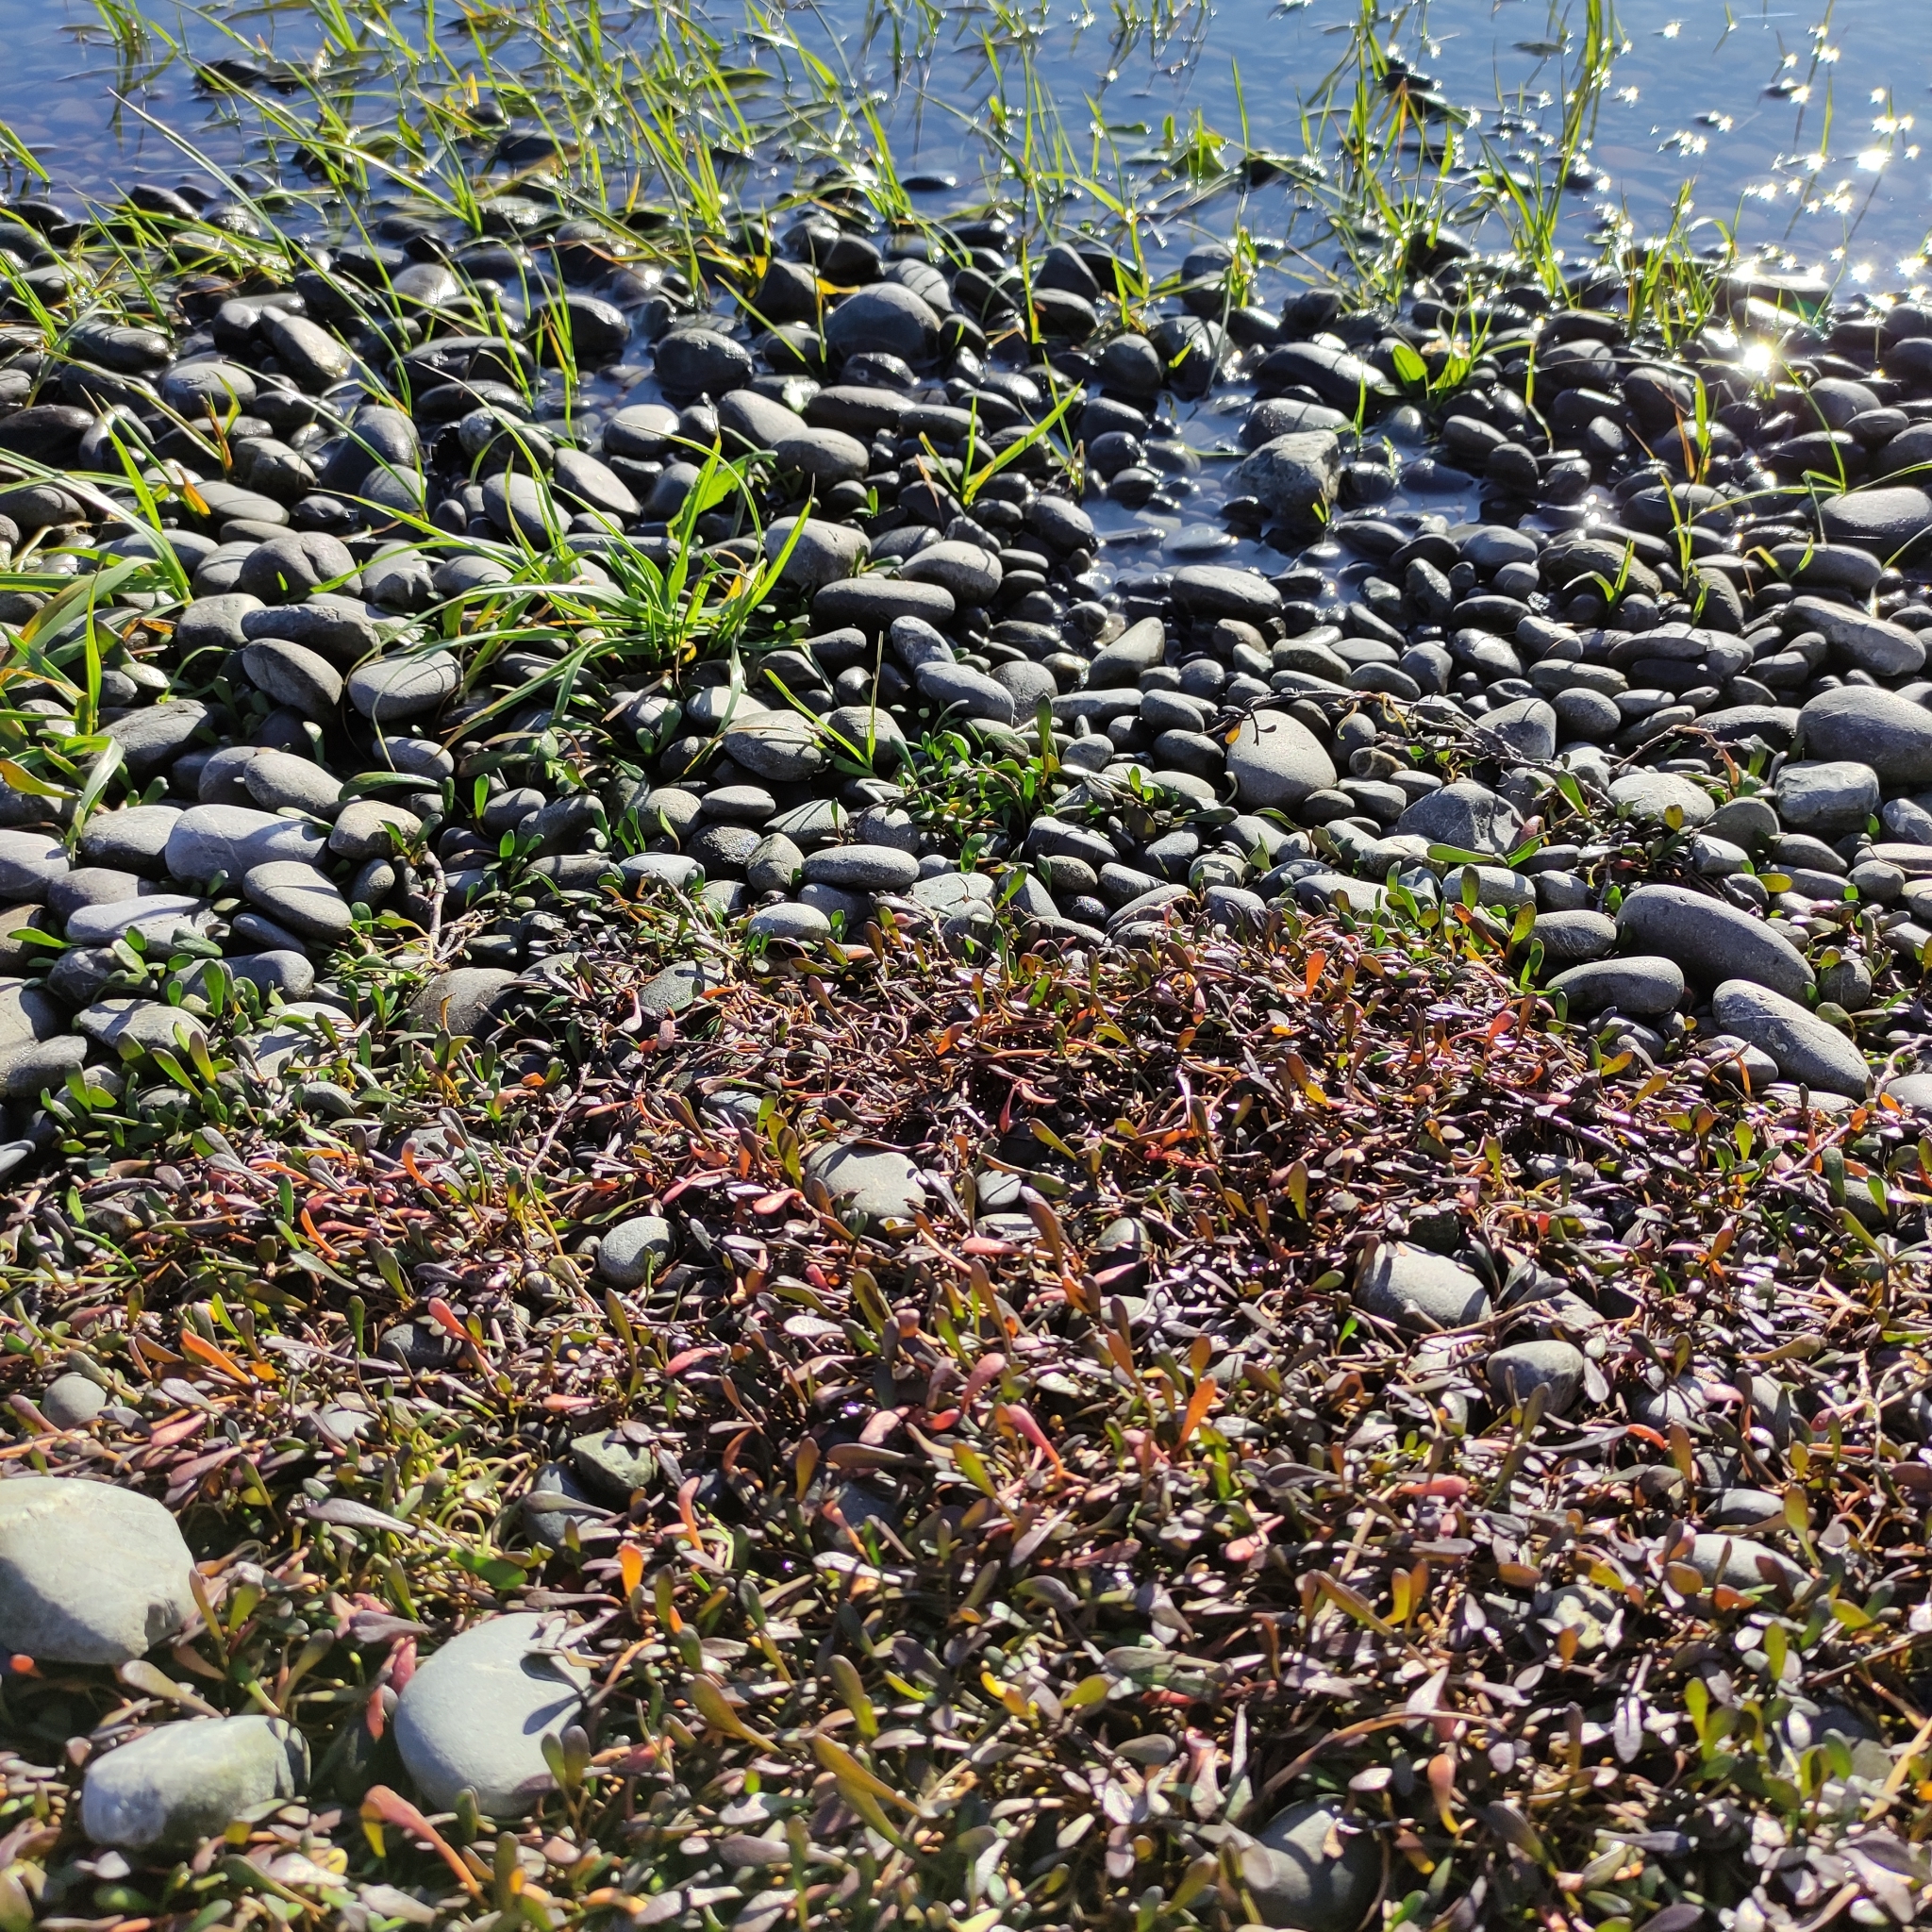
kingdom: Plantae
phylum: Tracheophyta
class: Magnoliopsida
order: Asterales
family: Goodeniaceae
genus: Goodenia
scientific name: Goodenia radicans
